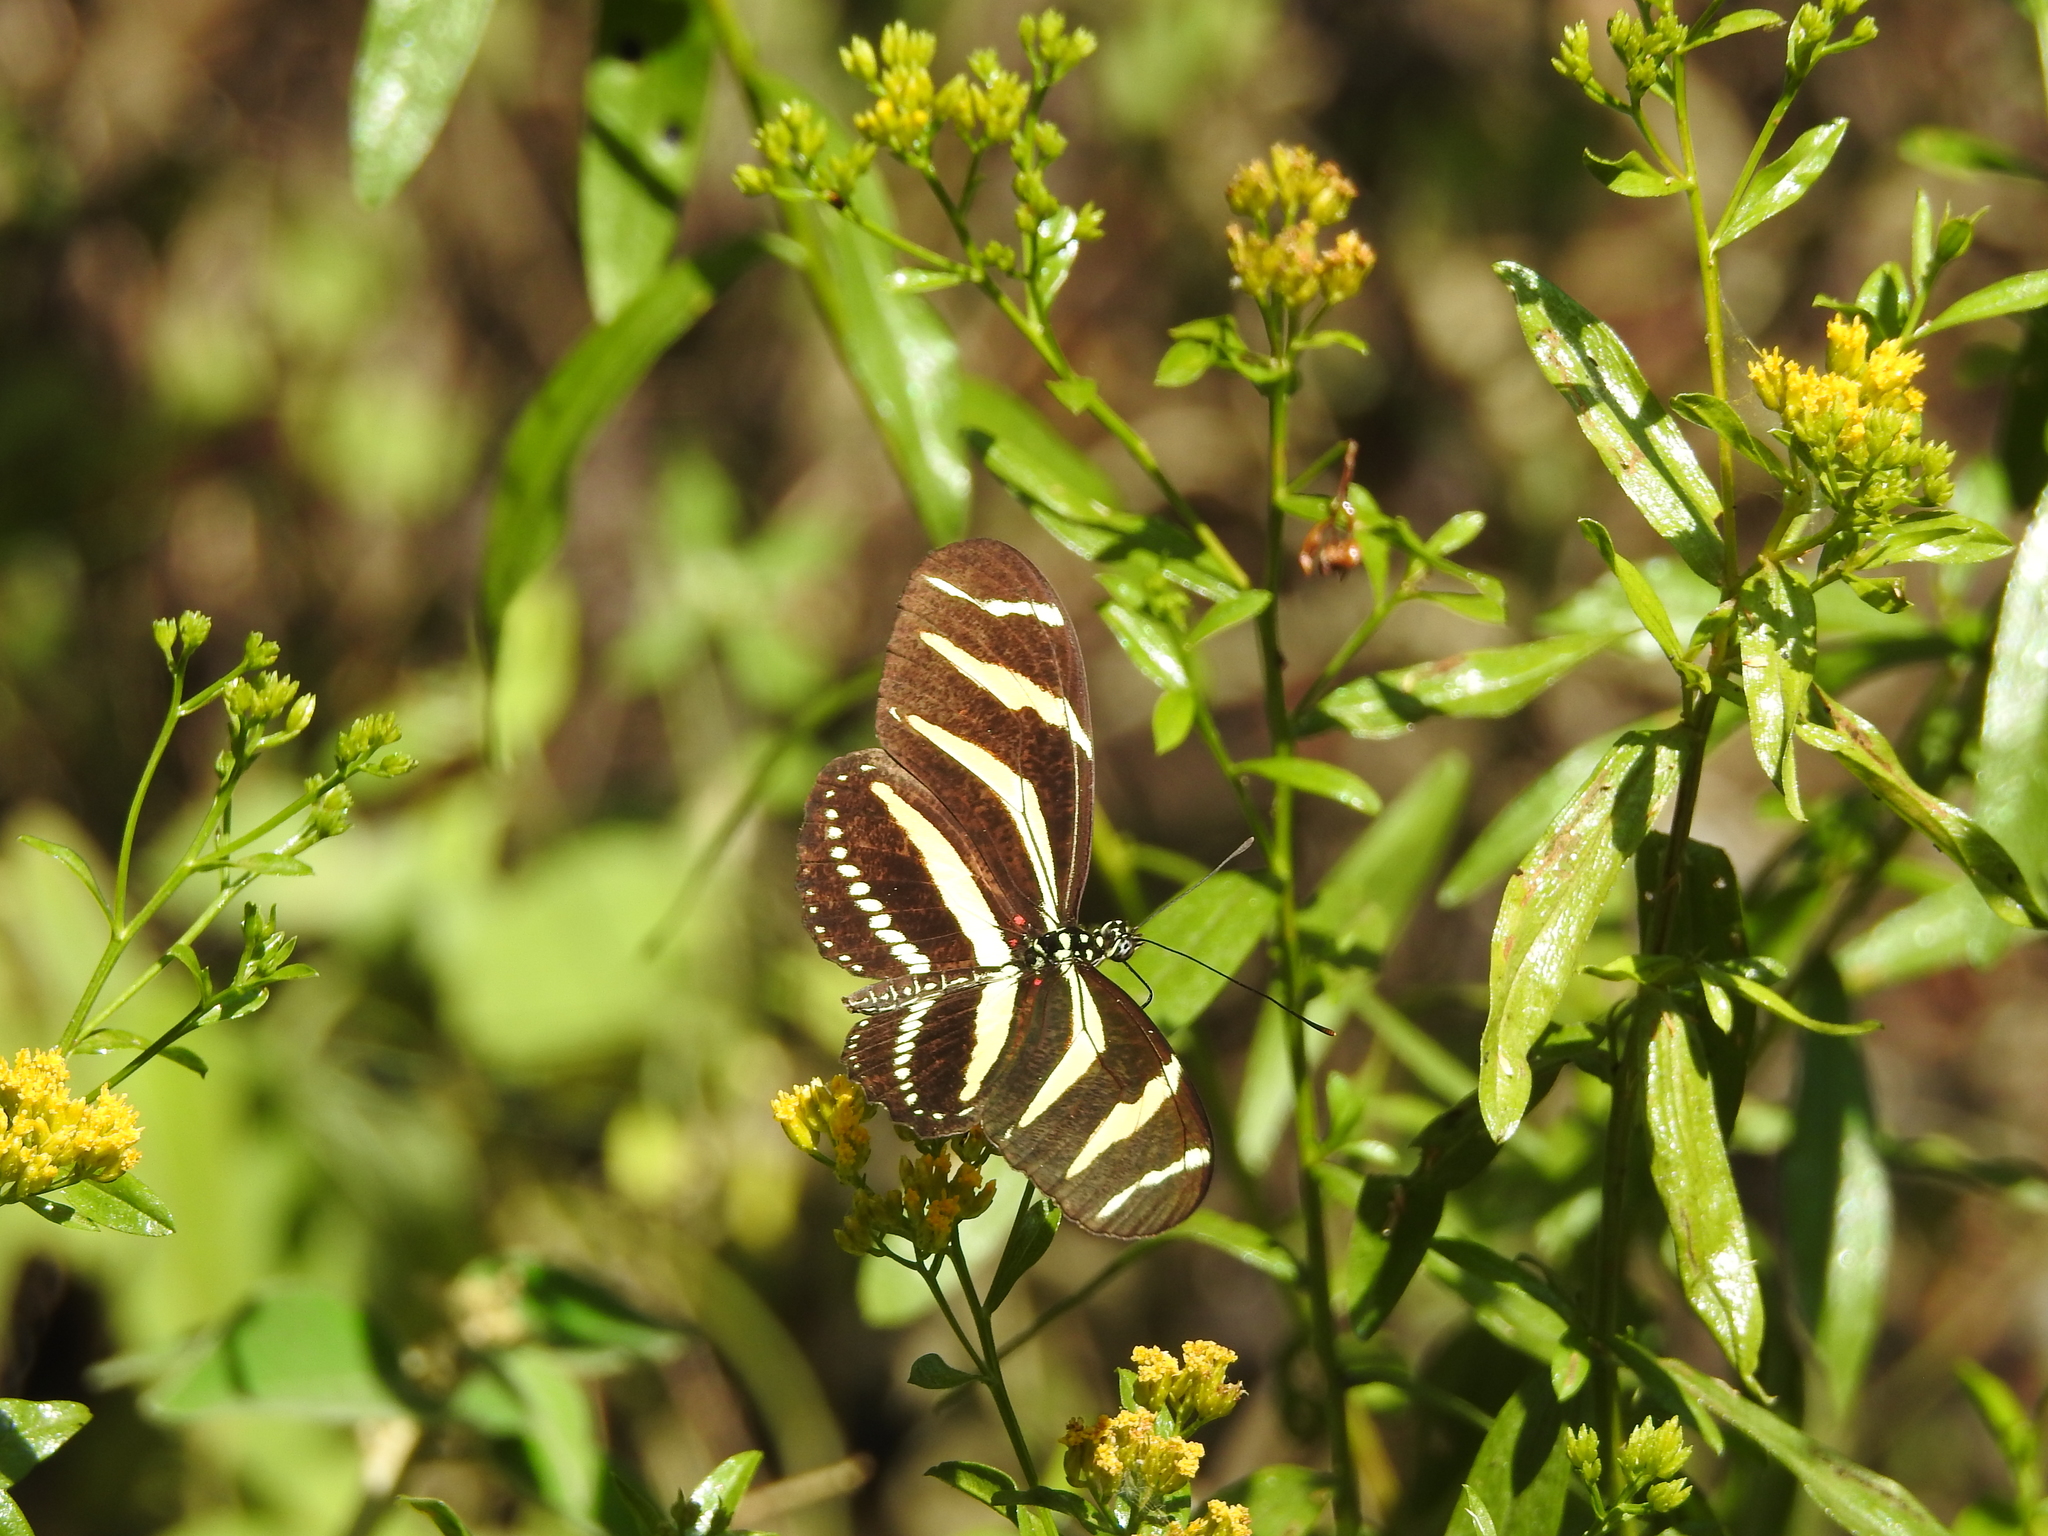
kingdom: Animalia
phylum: Arthropoda
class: Insecta
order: Lepidoptera
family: Nymphalidae
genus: Heliconius
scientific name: Heliconius charithonia
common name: Zebra long wing
